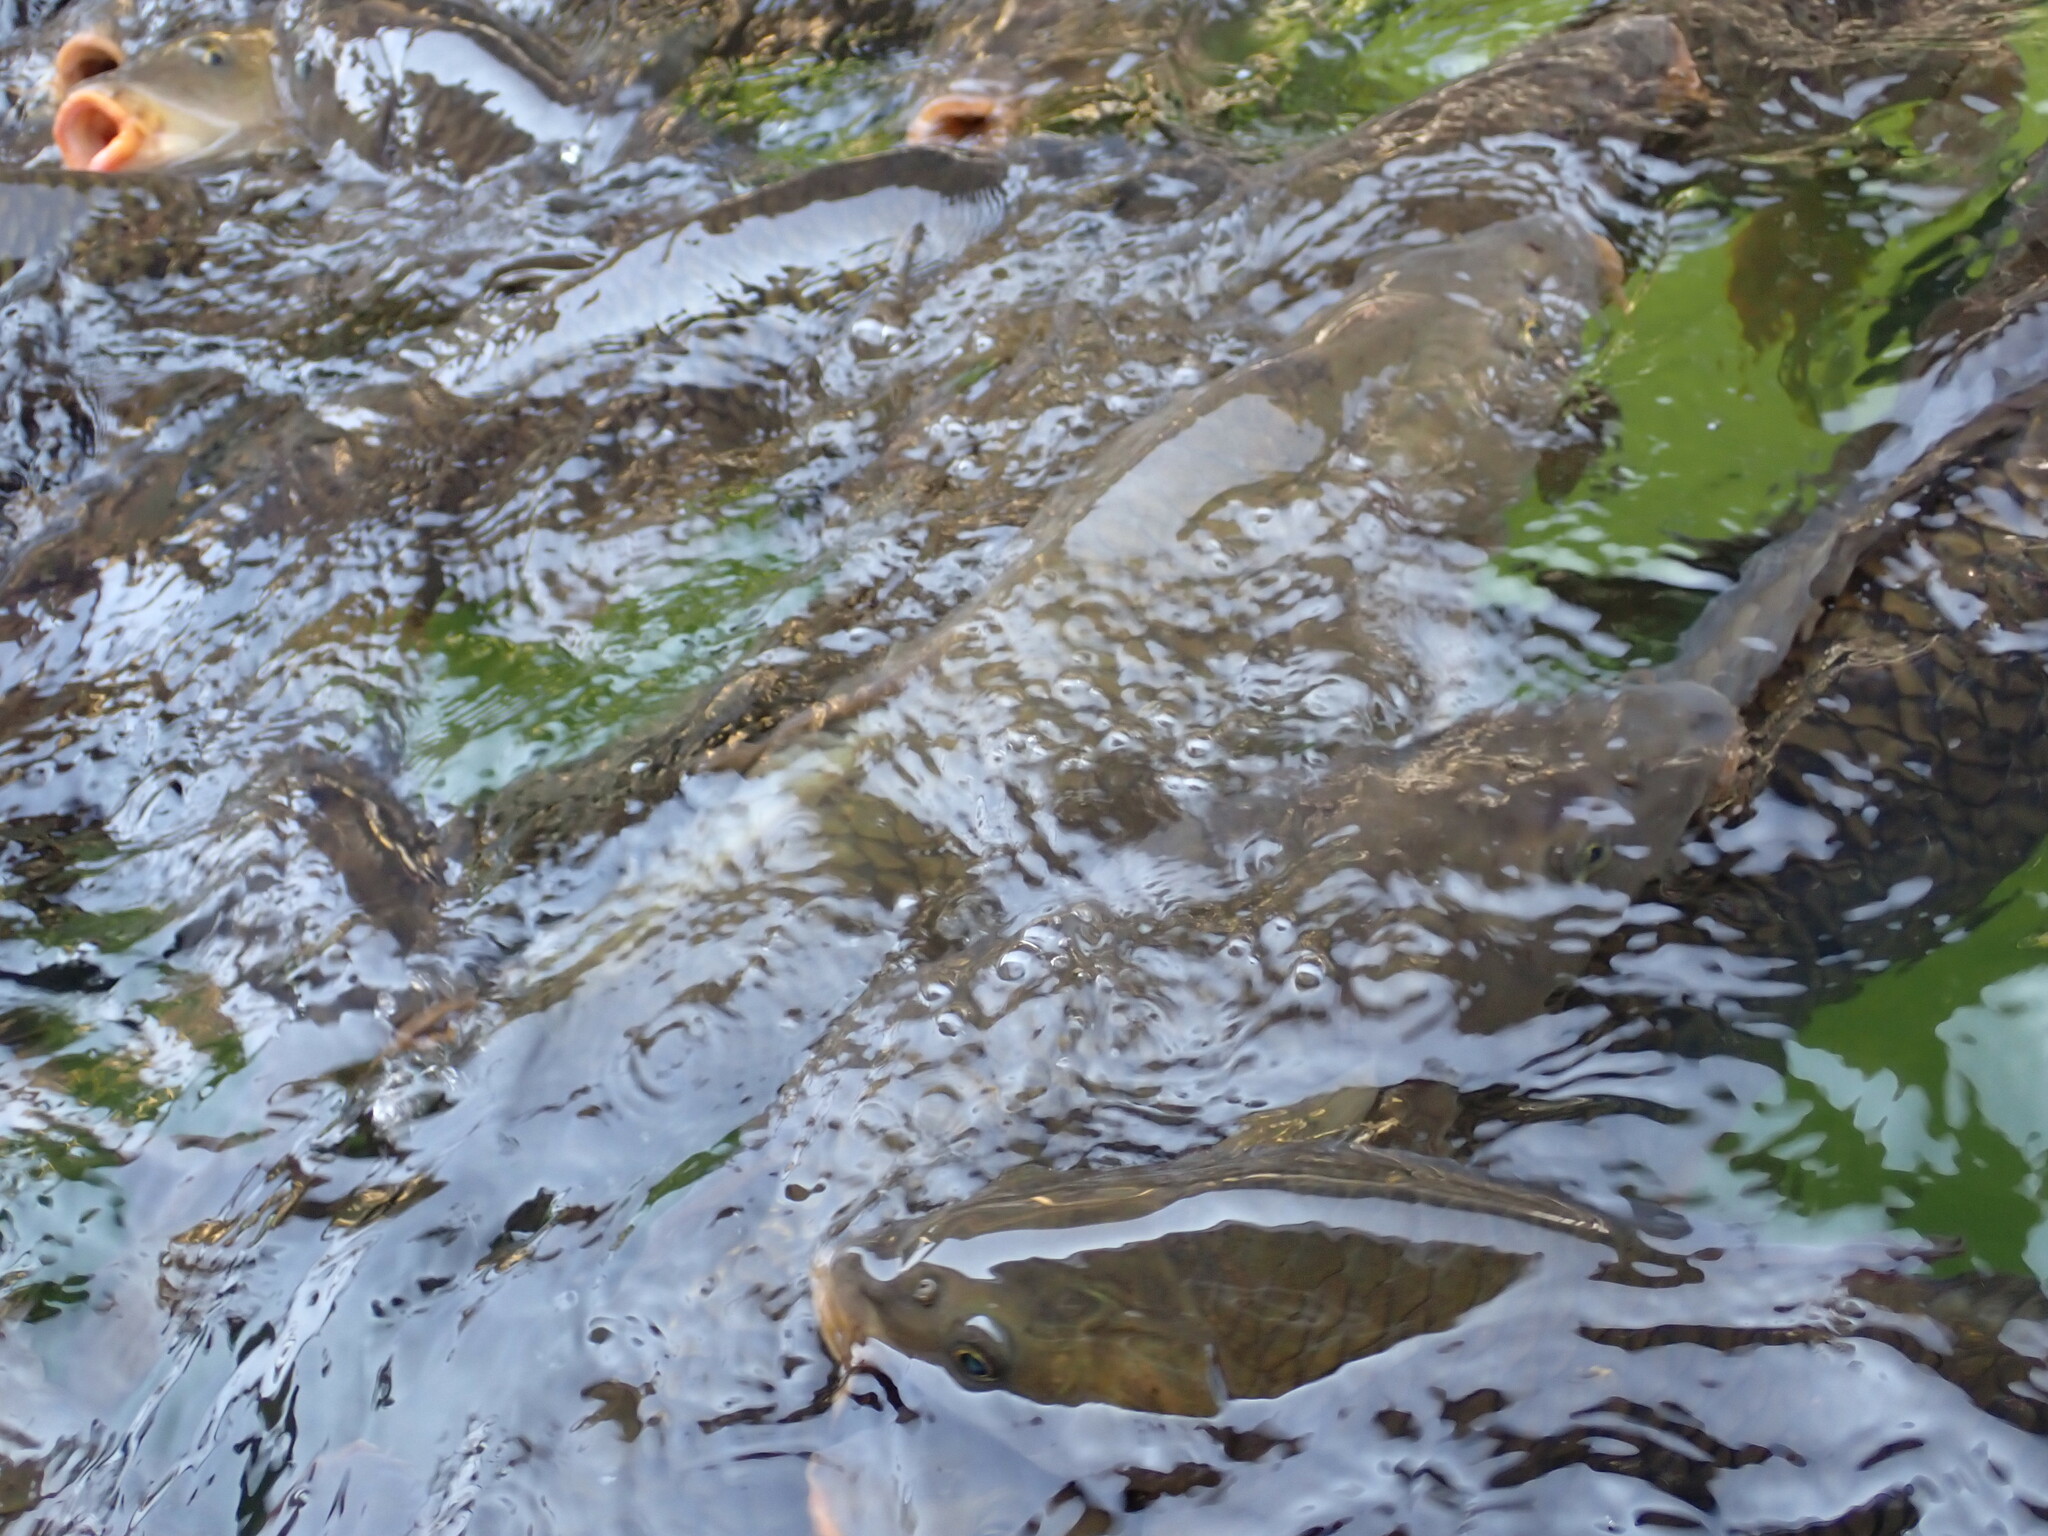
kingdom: Animalia
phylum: Chordata
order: Cypriniformes
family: Cyprinidae
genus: Cyprinus
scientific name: Cyprinus carpio
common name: Common carp
